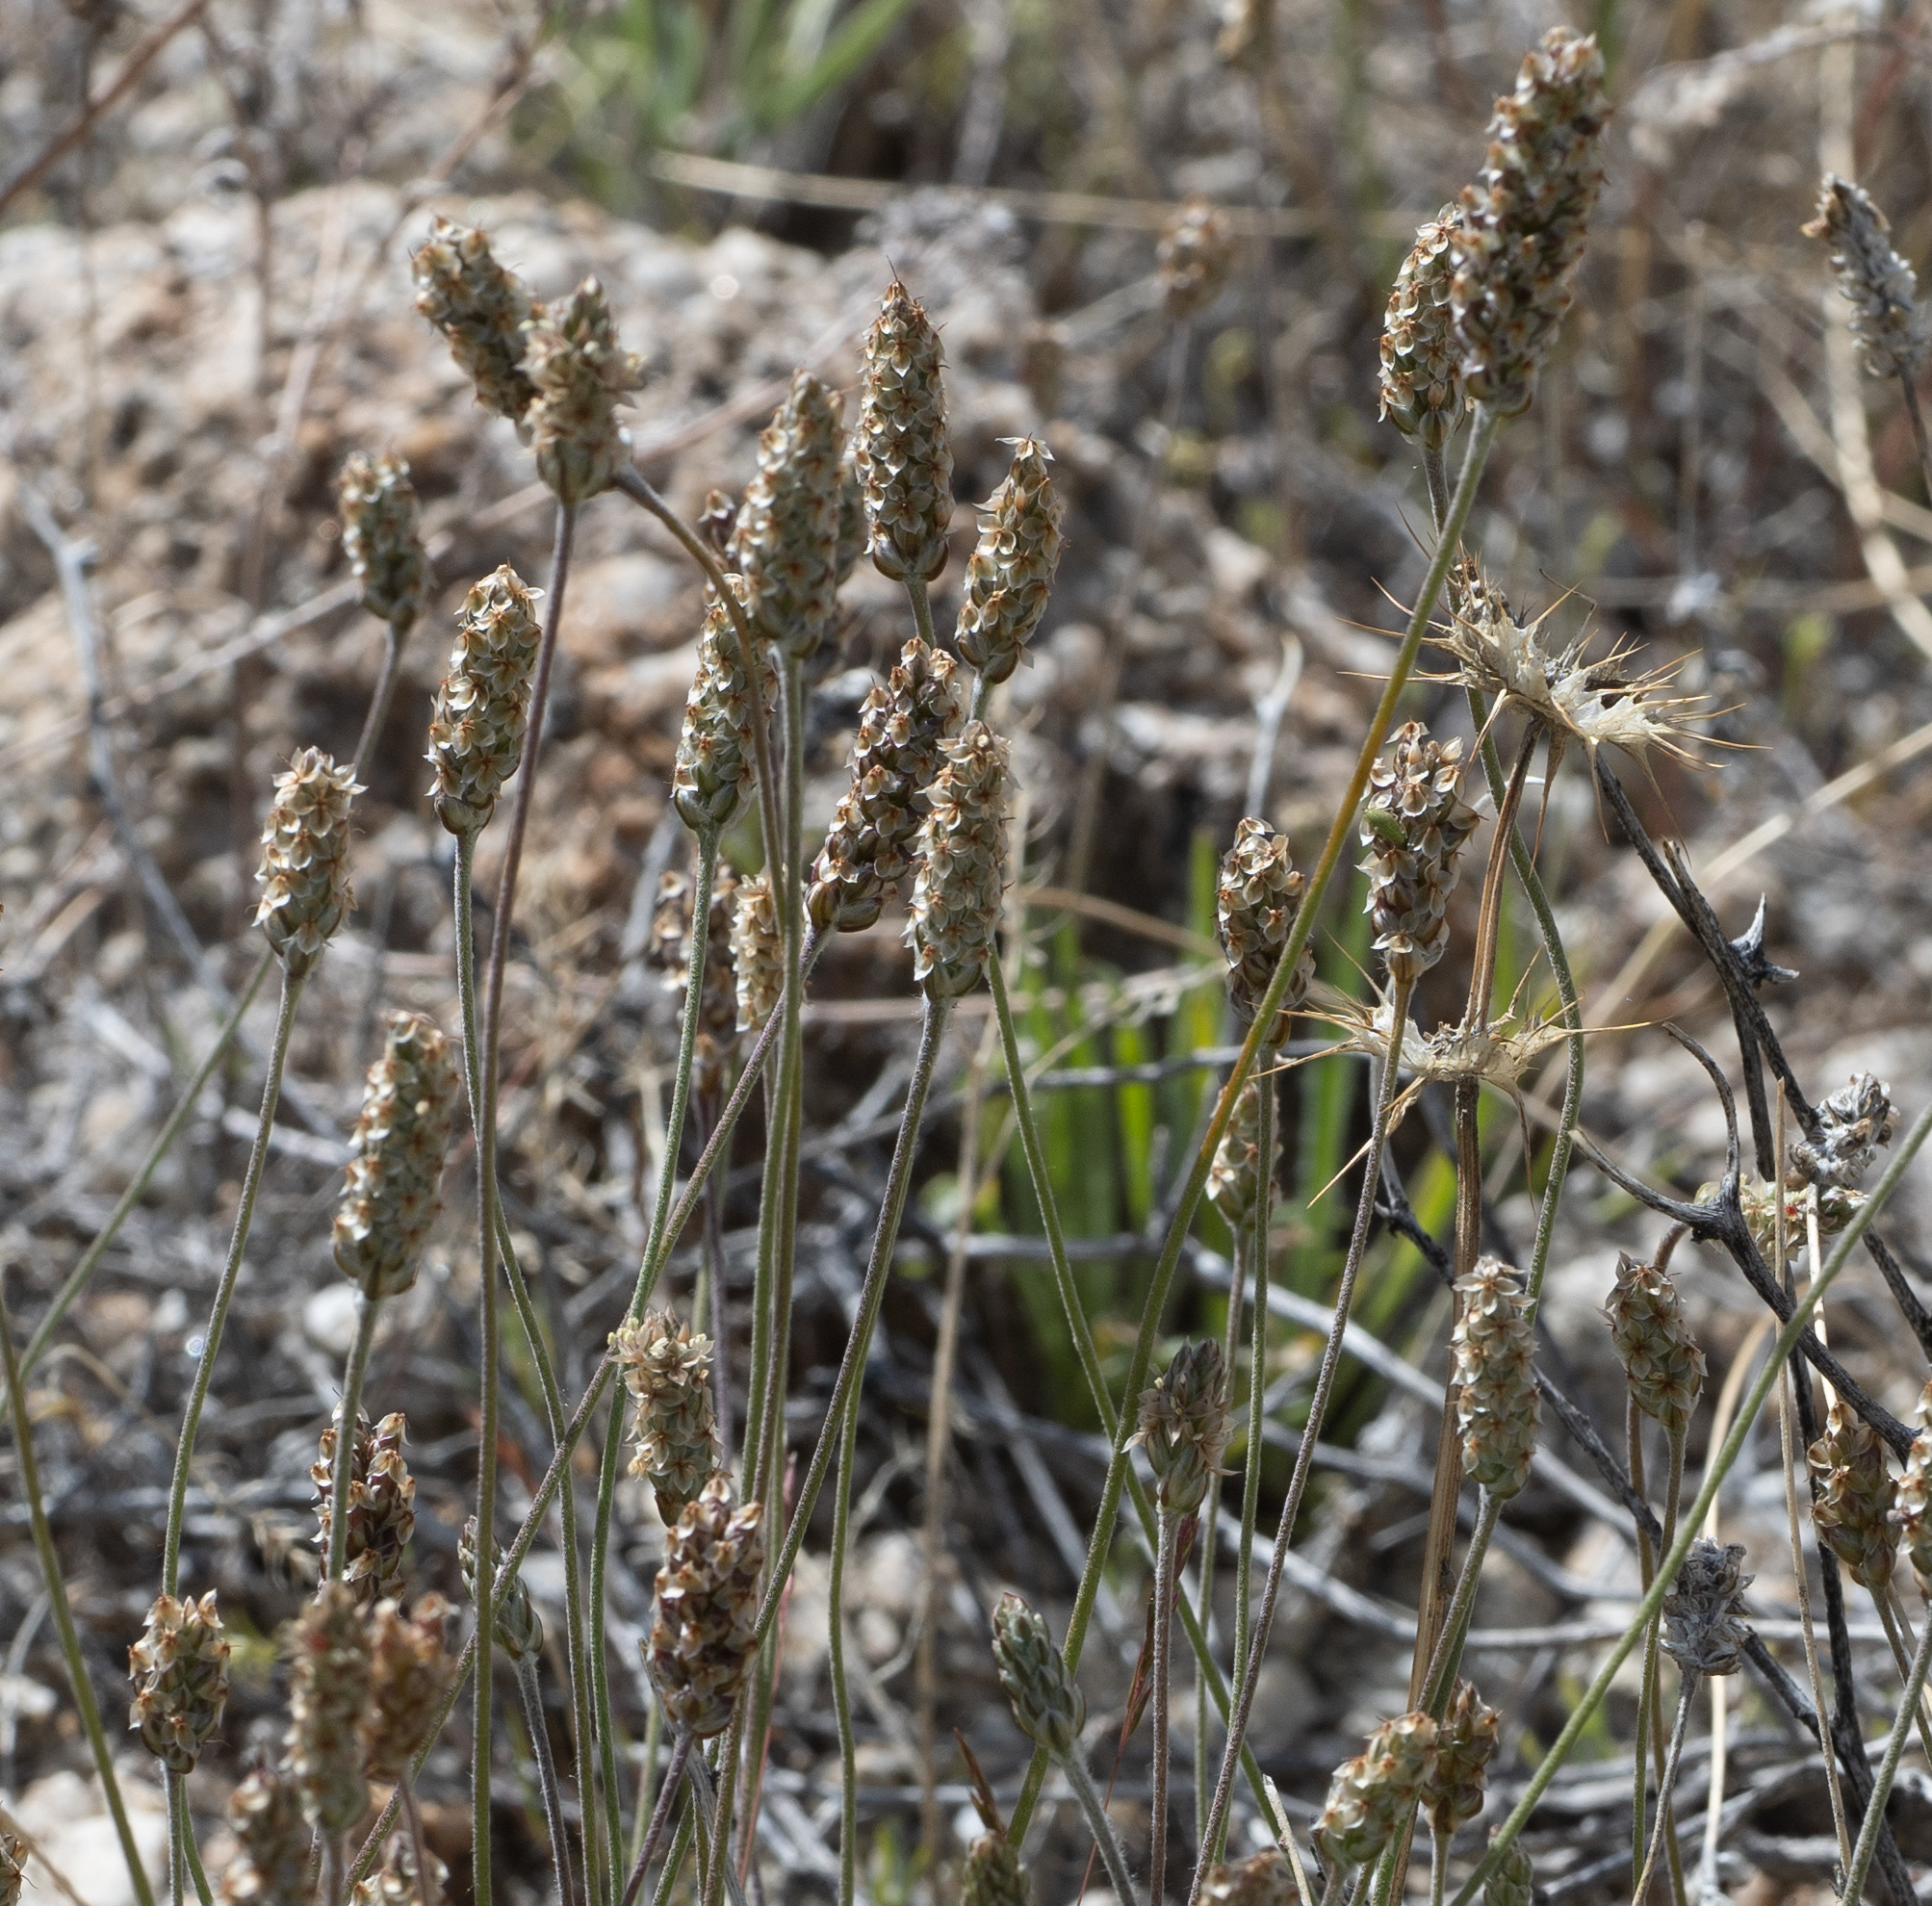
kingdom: Plantae
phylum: Tracheophyta
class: Magnoliopsida
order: Lamiales
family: Plantaginaceae
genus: Plantago
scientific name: Plantago ovata
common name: Blond plantain
